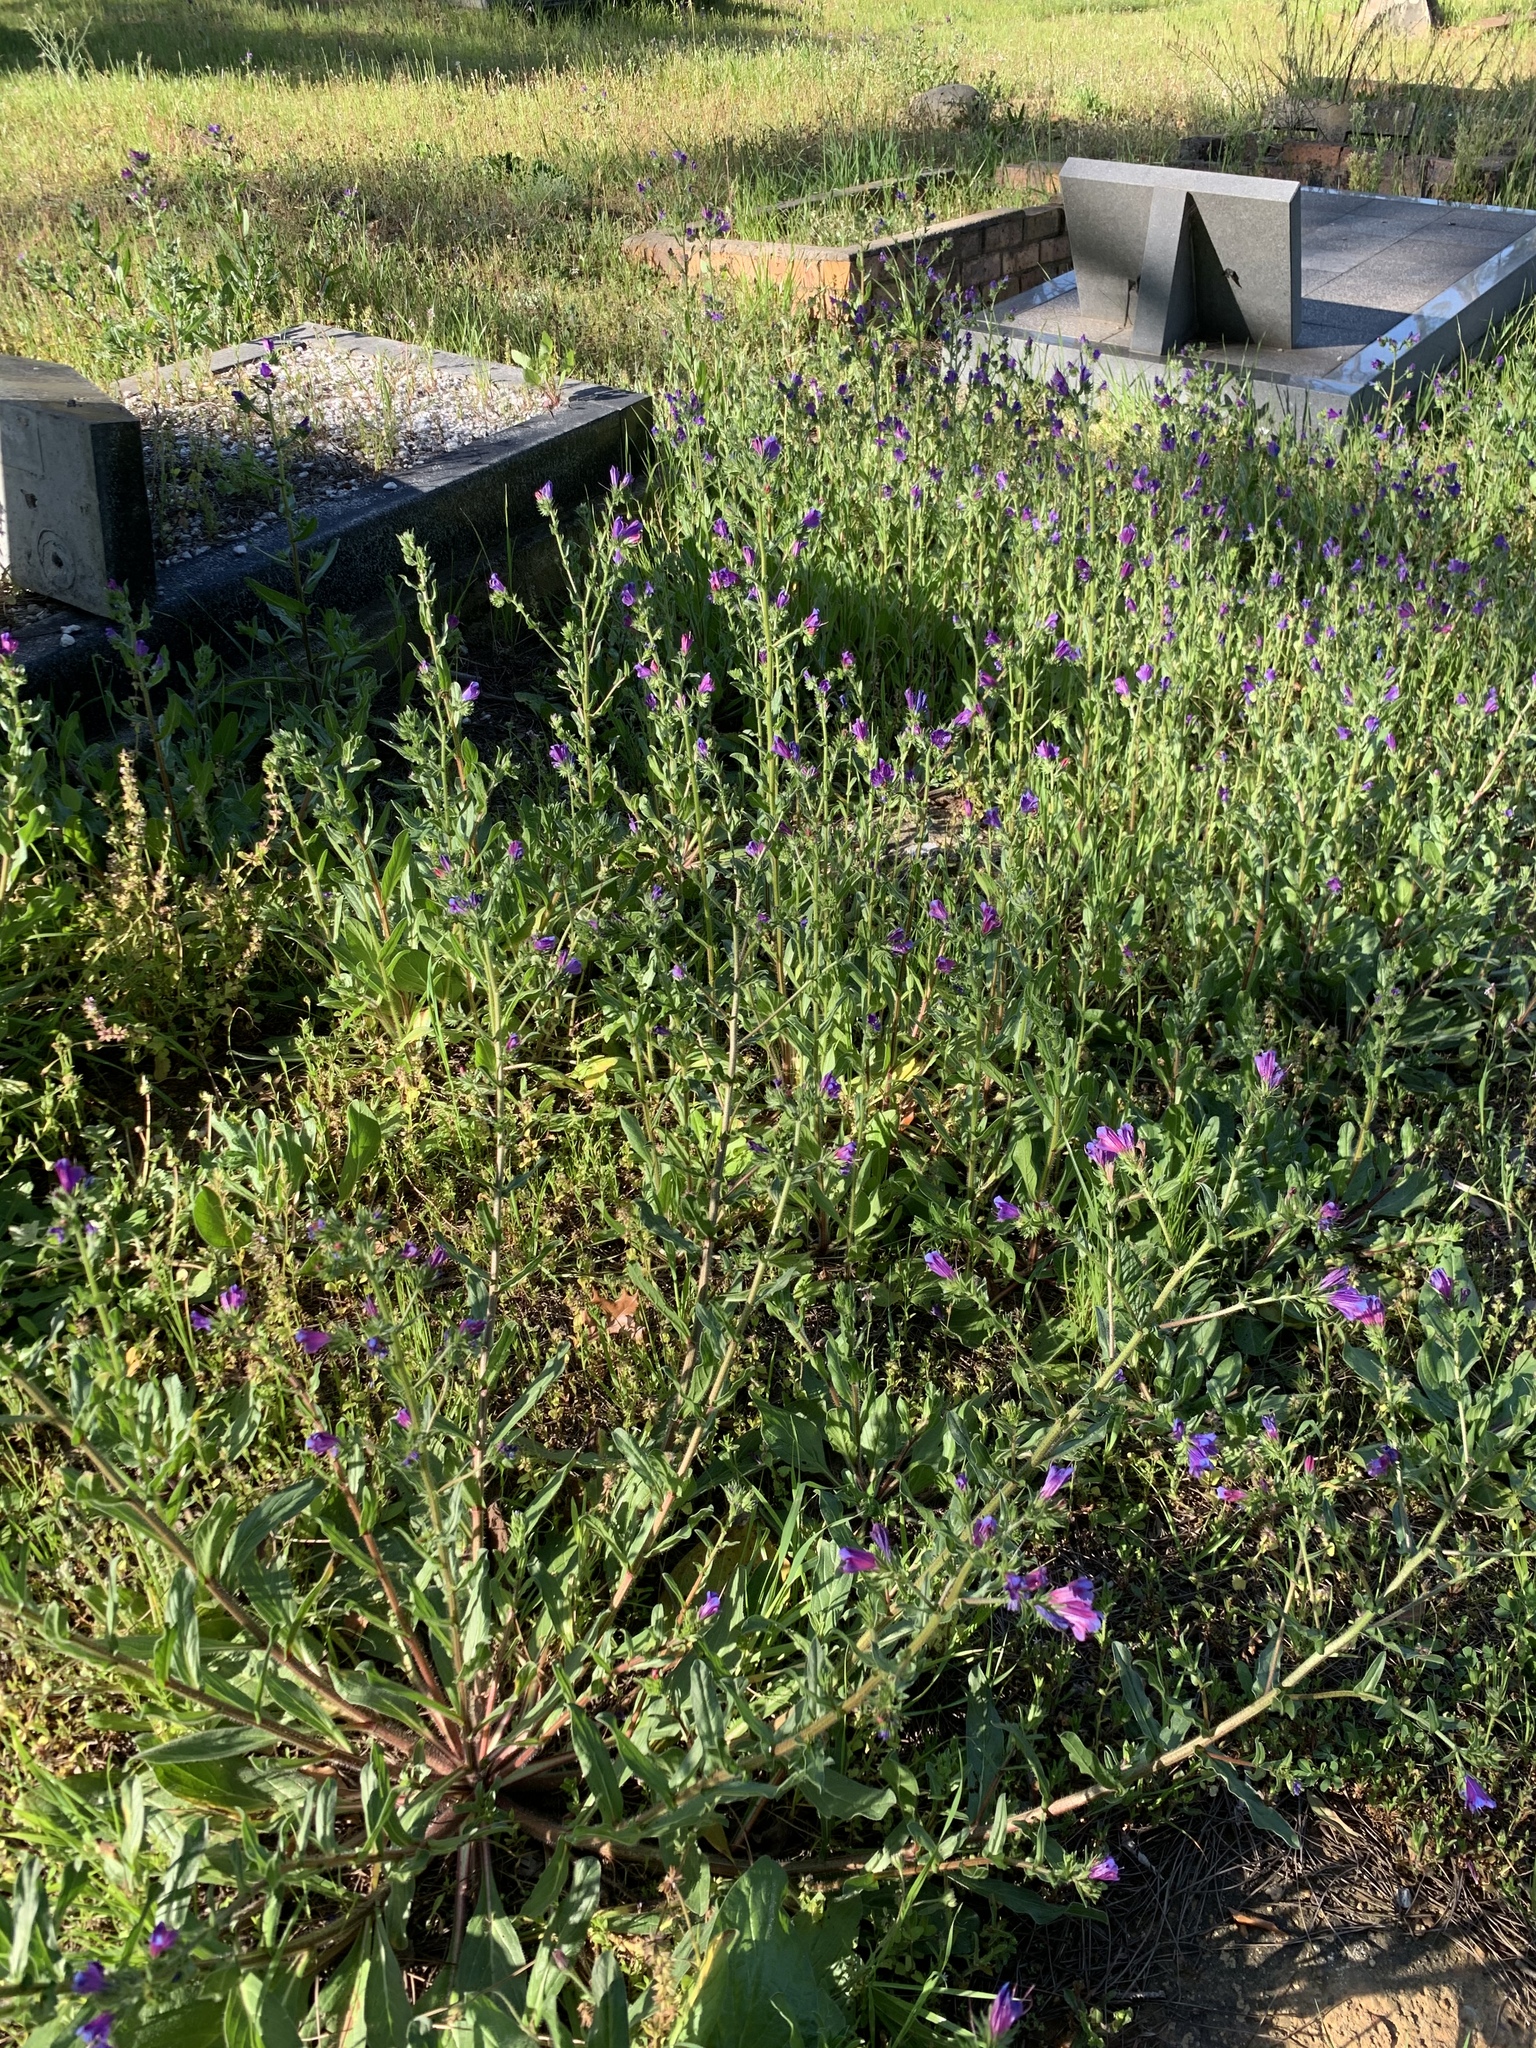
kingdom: Plantae
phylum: Tracheophyta
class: Magnoliopsida
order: Boraginales
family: Boraginaceae
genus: Echium
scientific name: Echium plantagineum
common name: Purple viper's-bugloss
